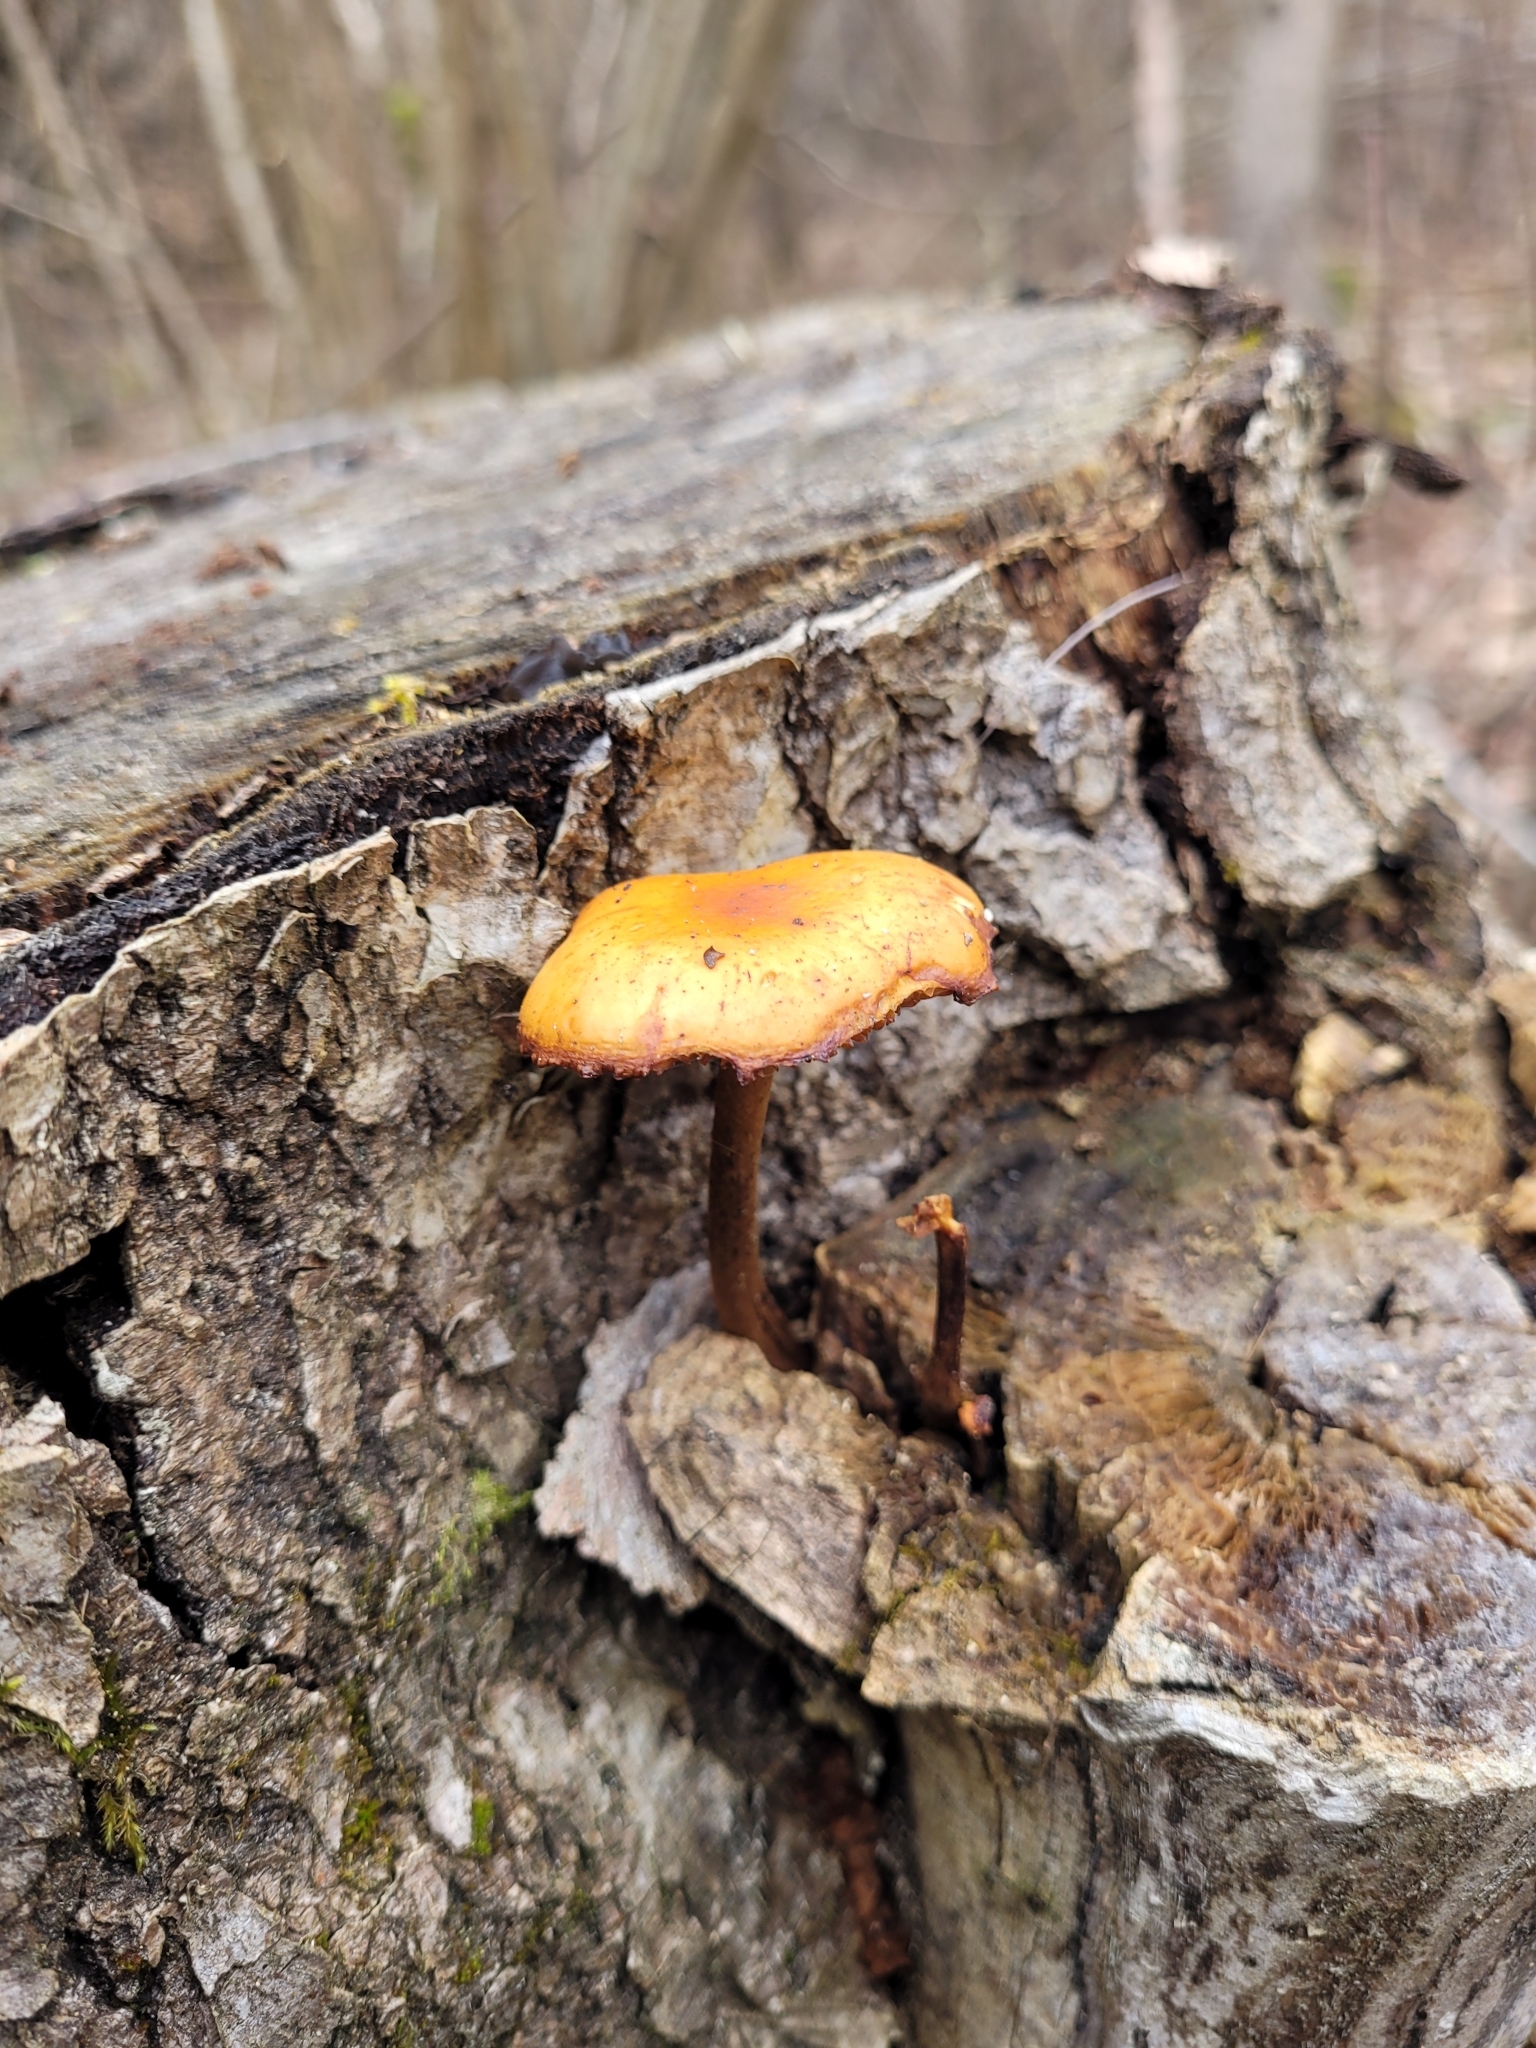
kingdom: Fungi
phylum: Basidiomycota
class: Agaricomycetes
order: Agaricales
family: Physalacriaceae
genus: Flammulina
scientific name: Flammulina
